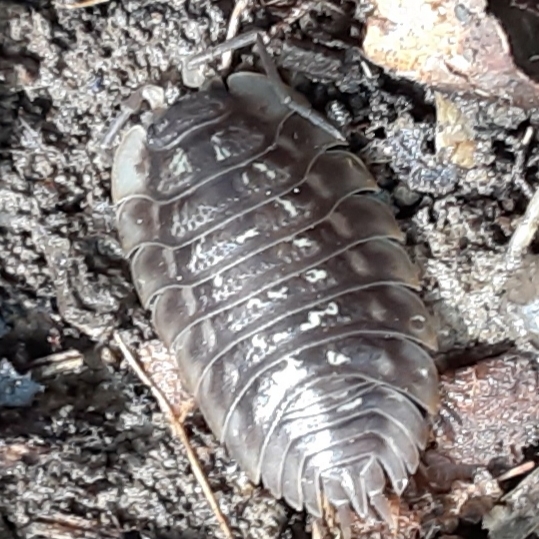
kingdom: Animalia
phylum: Arthropoda
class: Malacostraca
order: Isopoda
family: Oniscidae
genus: Oniscus
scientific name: Oniscus asellus
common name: Common shiny woodlouse
